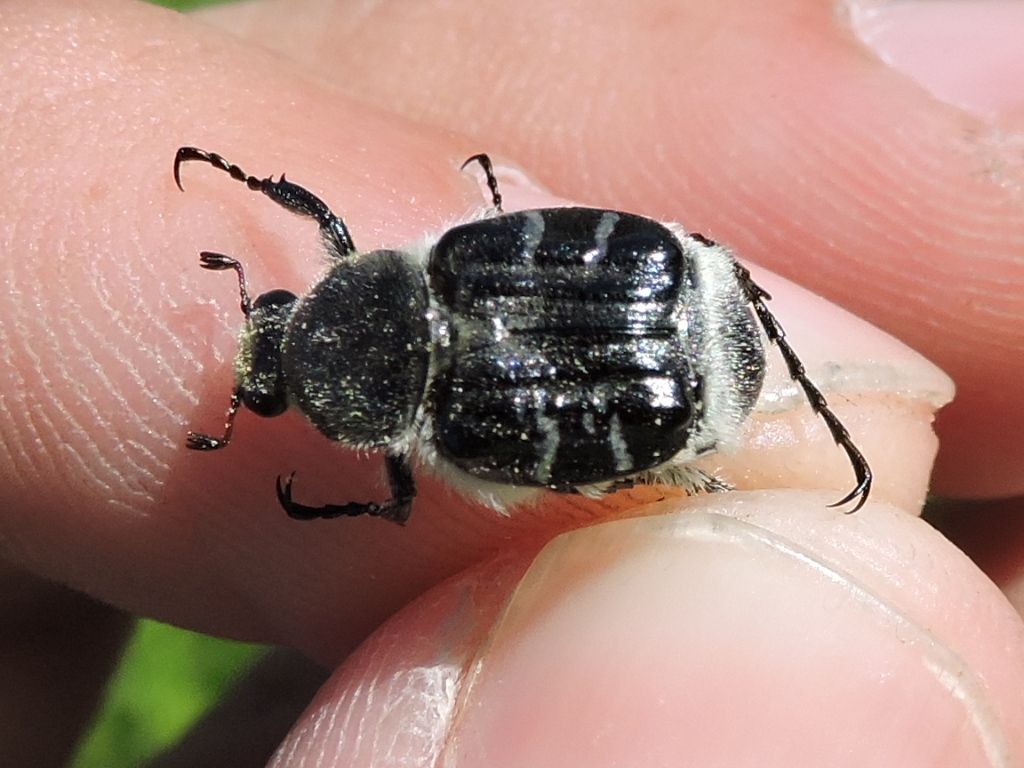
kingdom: Animalia
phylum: Arthropoda
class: Insecta
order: Coleoptera
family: Scarabaeidae
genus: Trichiotinus
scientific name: Trichiotinus texanus
